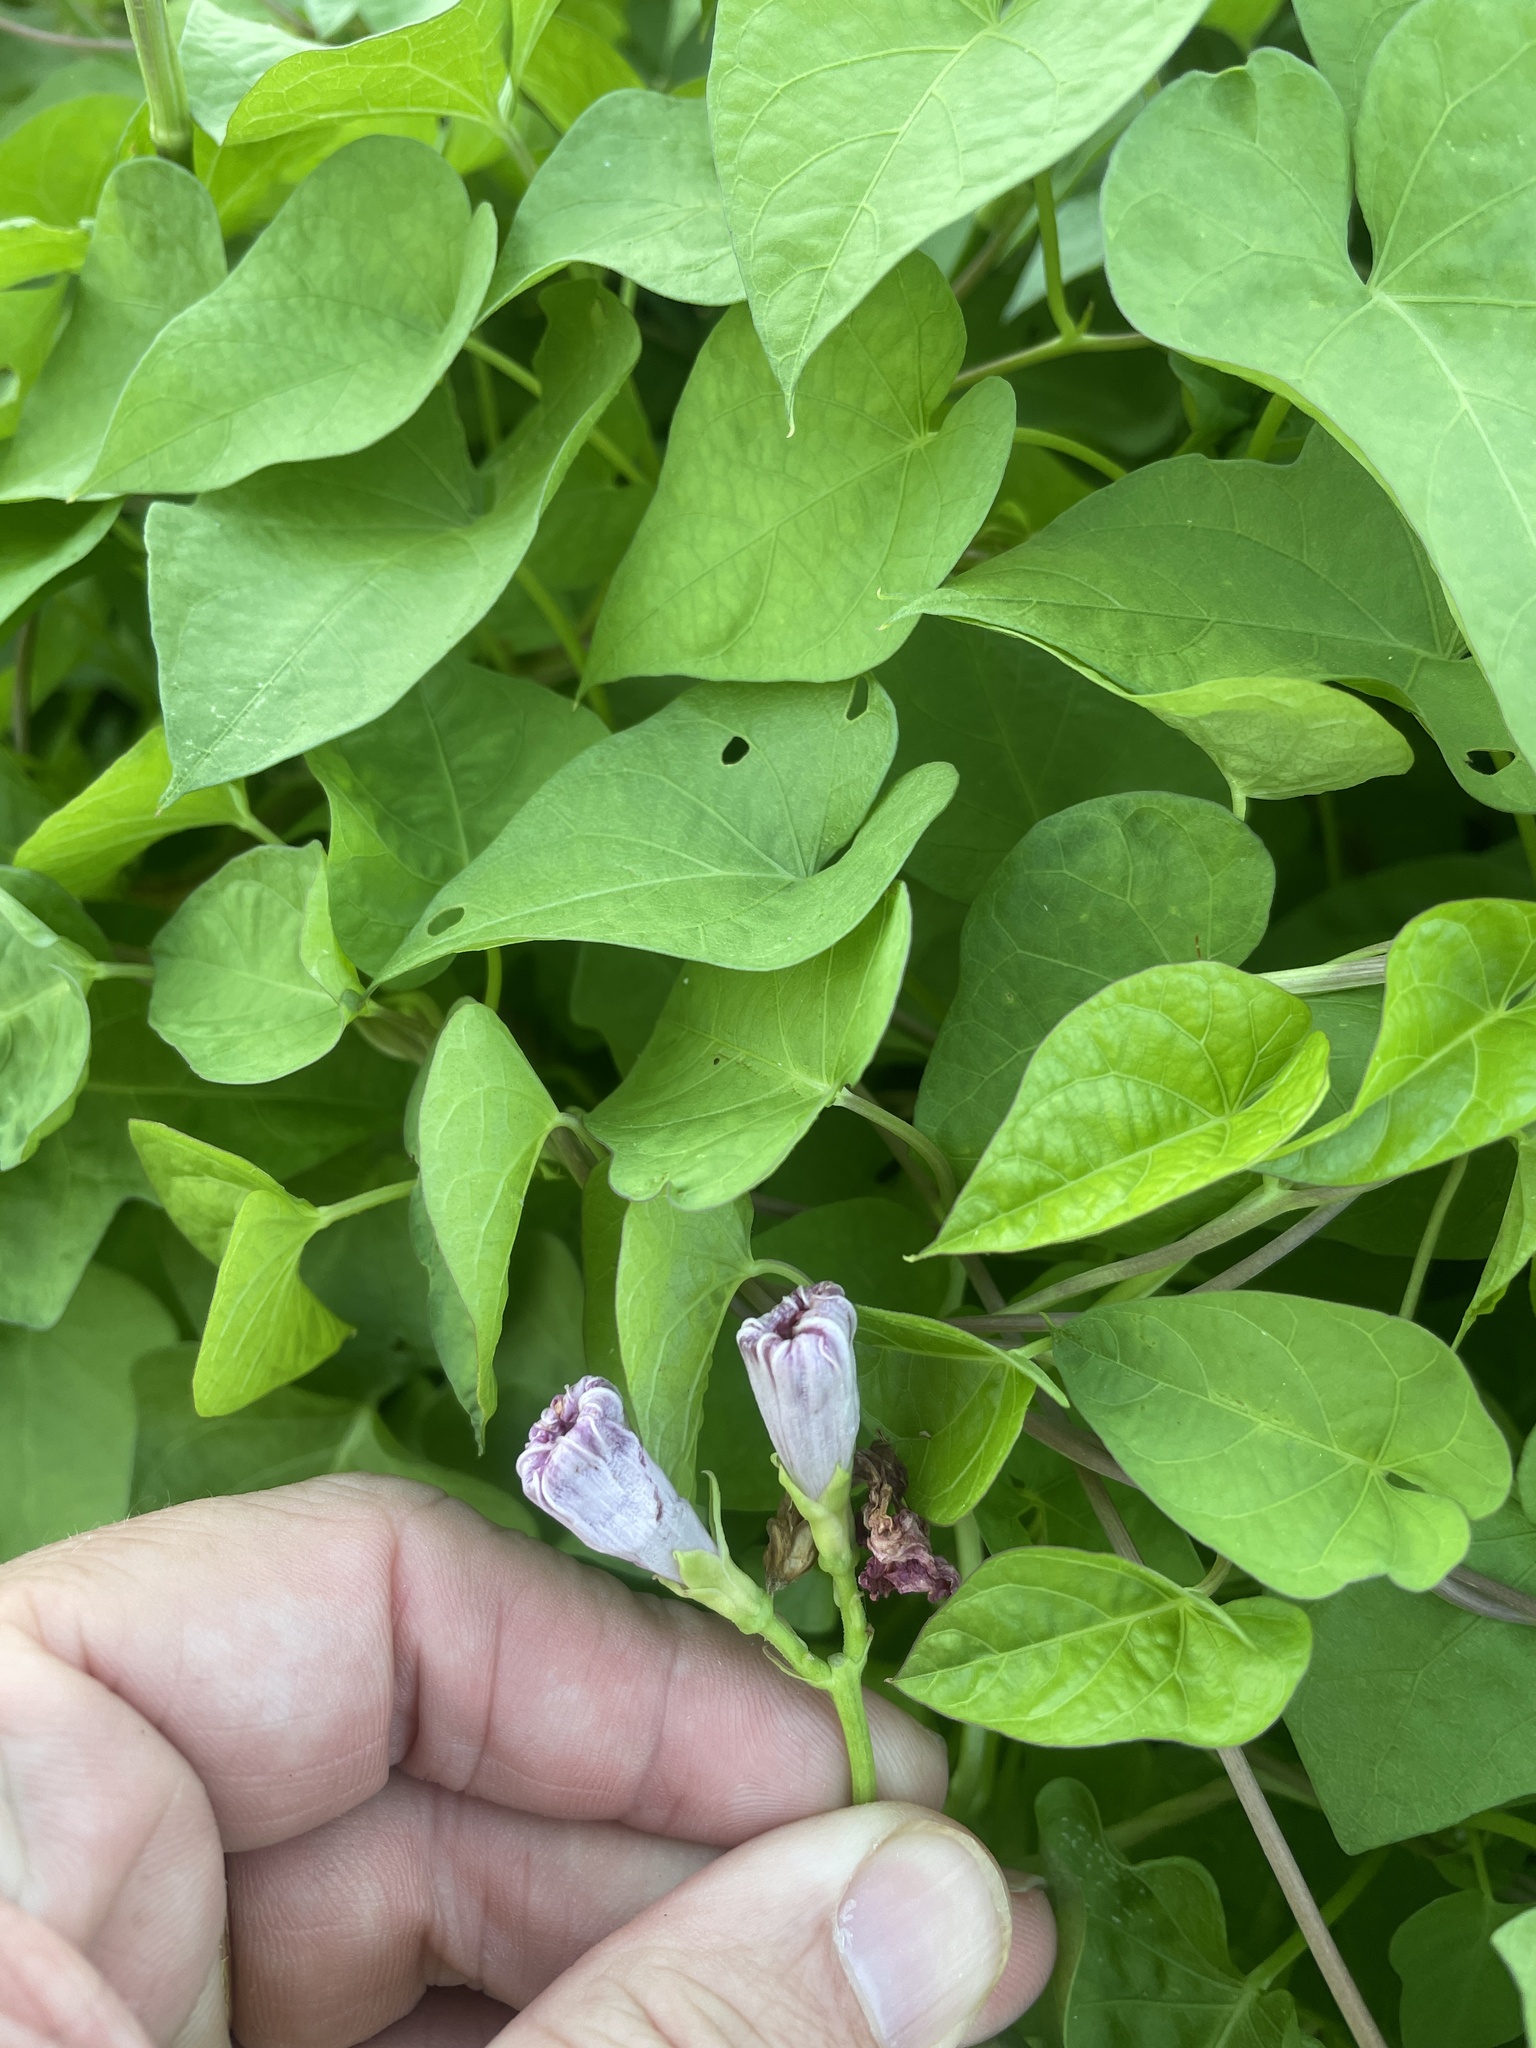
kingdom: Plantae
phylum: Tracheophyta
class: Magnoliopsida
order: Solanales
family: Convolvulaceae
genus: Ipomoea
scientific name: Ipomoea cordatotriloba
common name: Cotton morning glory
